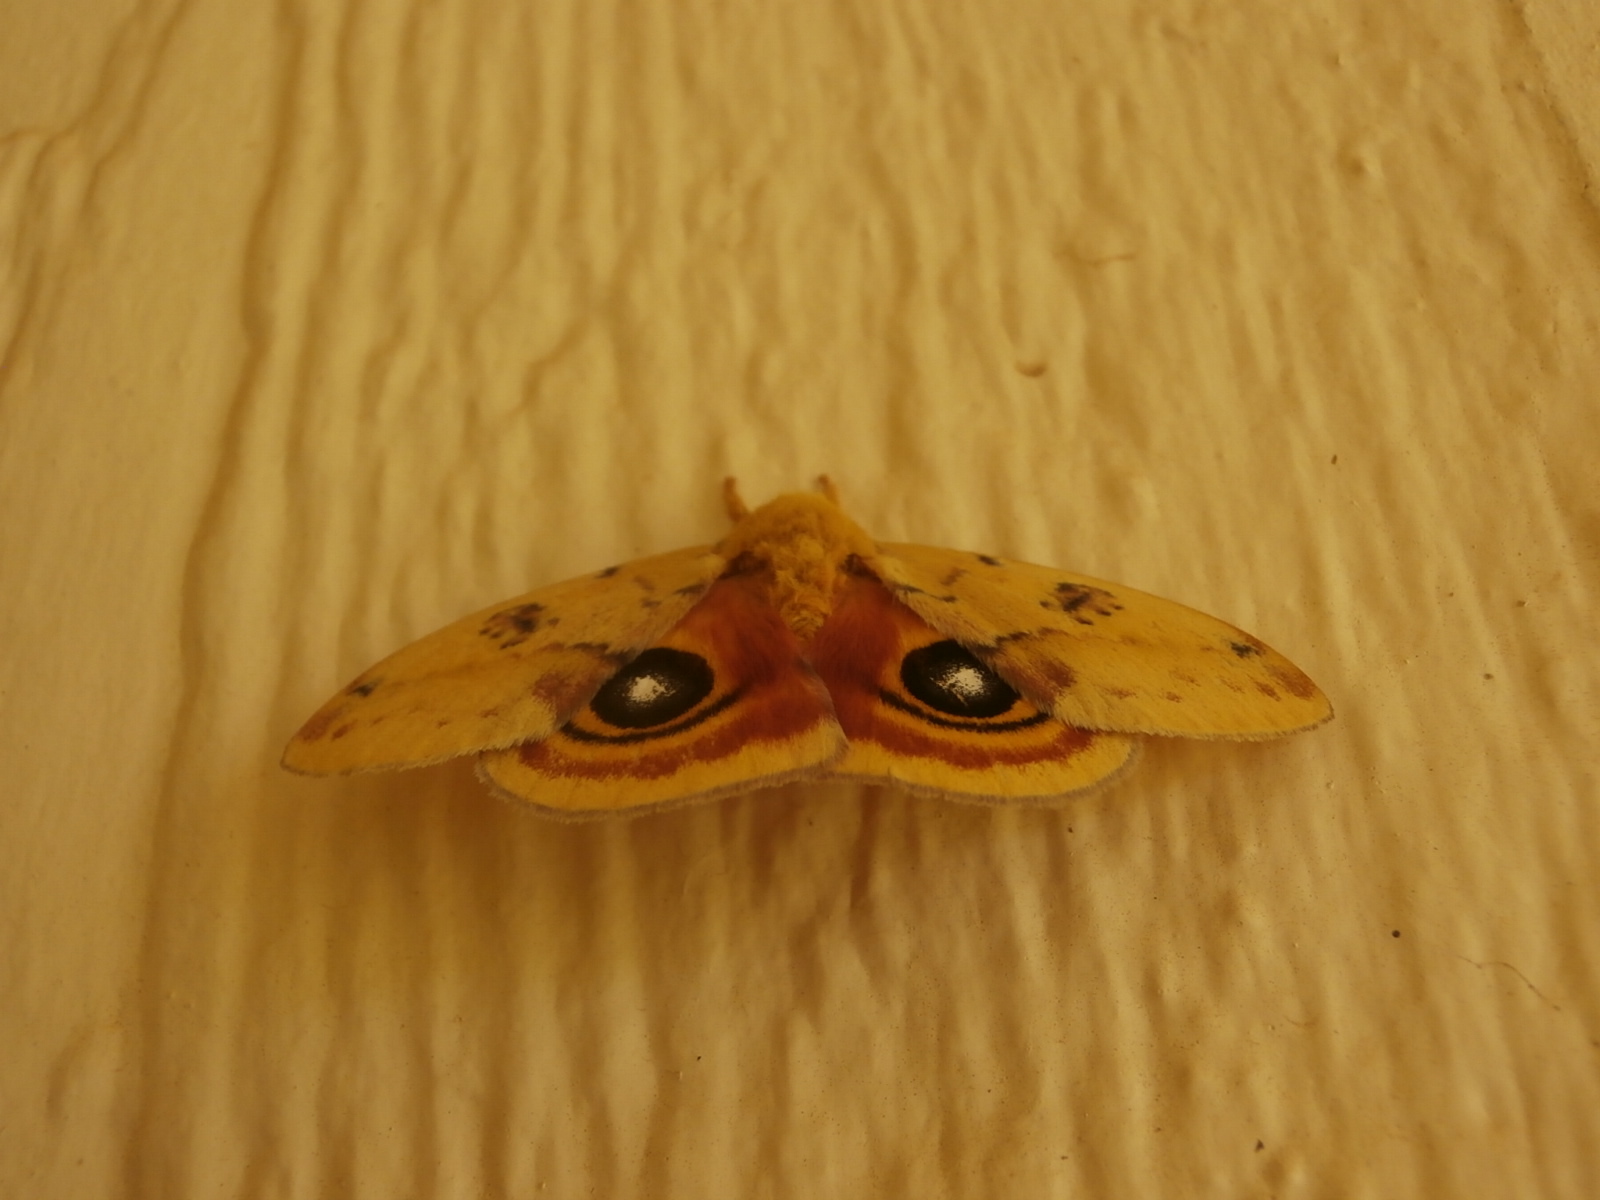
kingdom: Animalia
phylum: Arthropoda
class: Insecta
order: Lepidoptera
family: Saturniidae
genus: Automeris
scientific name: Automeris io
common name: Io moth
